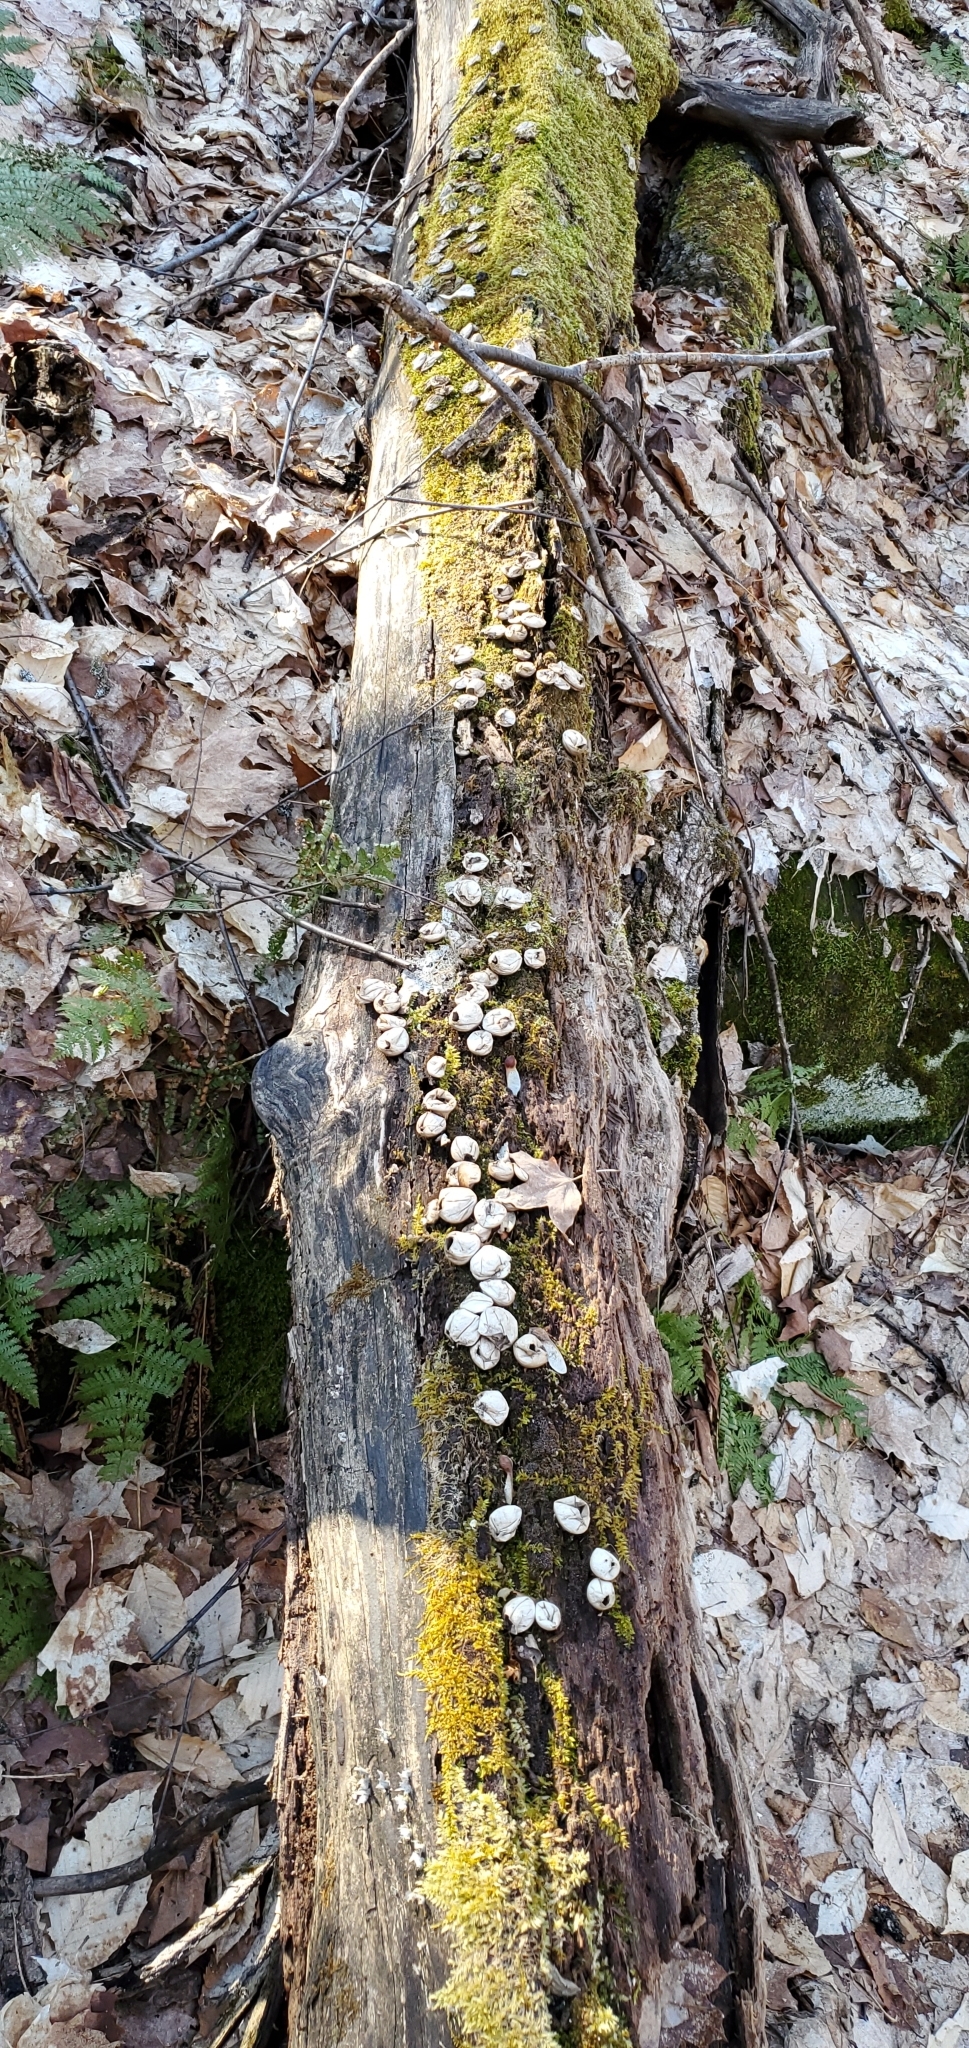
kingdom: Fungi
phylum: Basidiomycota
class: Agaricomycetes
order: Agaricales
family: Lycoperdaceae
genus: Apioperdon
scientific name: Apioperdon pyriforme
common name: Pear-shaped puffball
